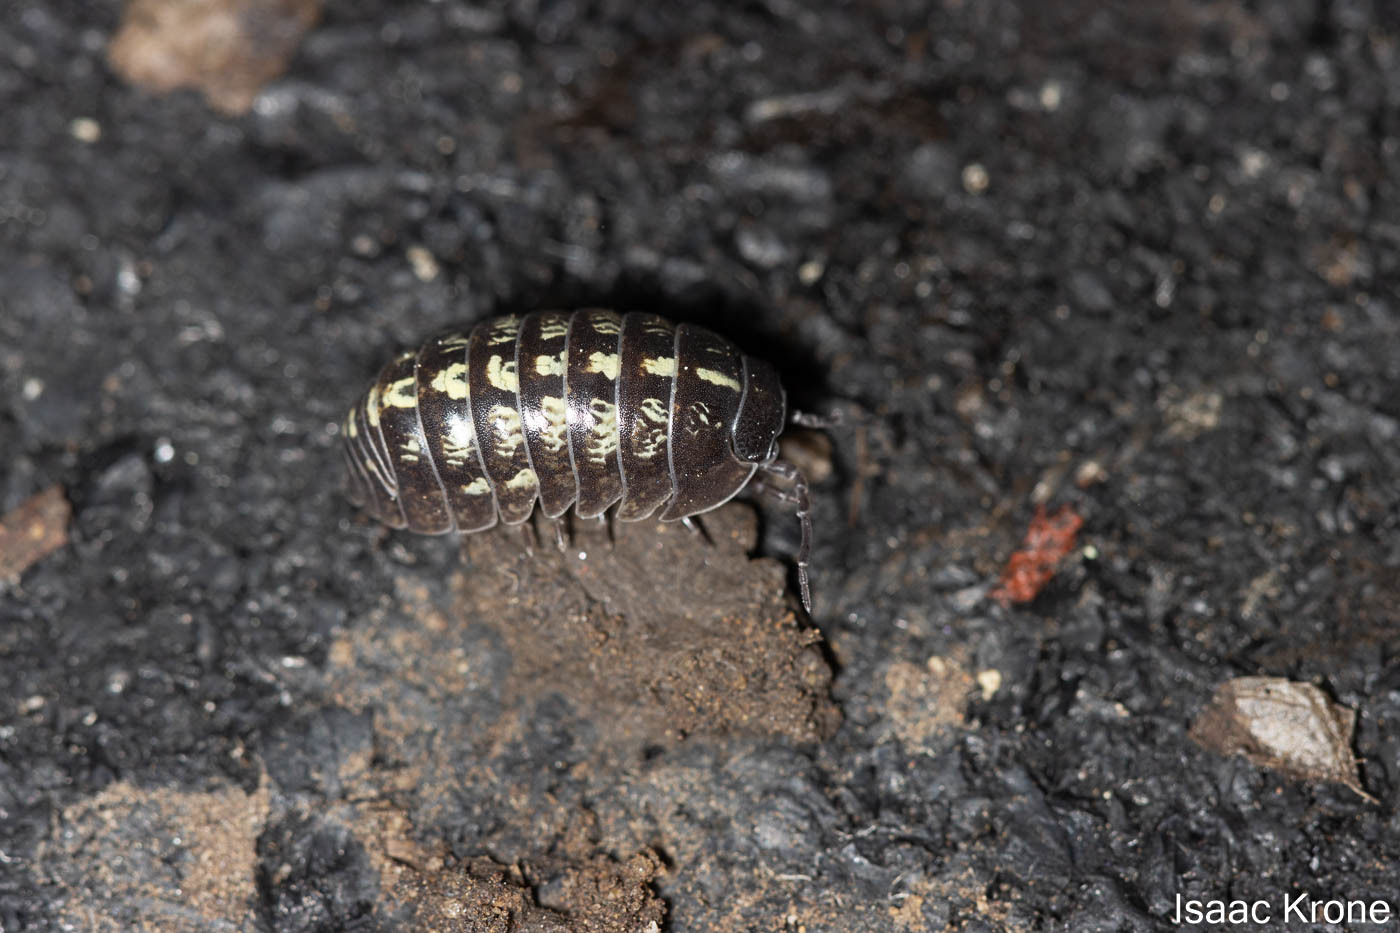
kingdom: Animalia
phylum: Arthropoda
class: Malacostraca
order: Isopoda
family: Armadillidiidae
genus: Armadillidium
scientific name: Armadillidium vulgare
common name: Common pill woodlouse
